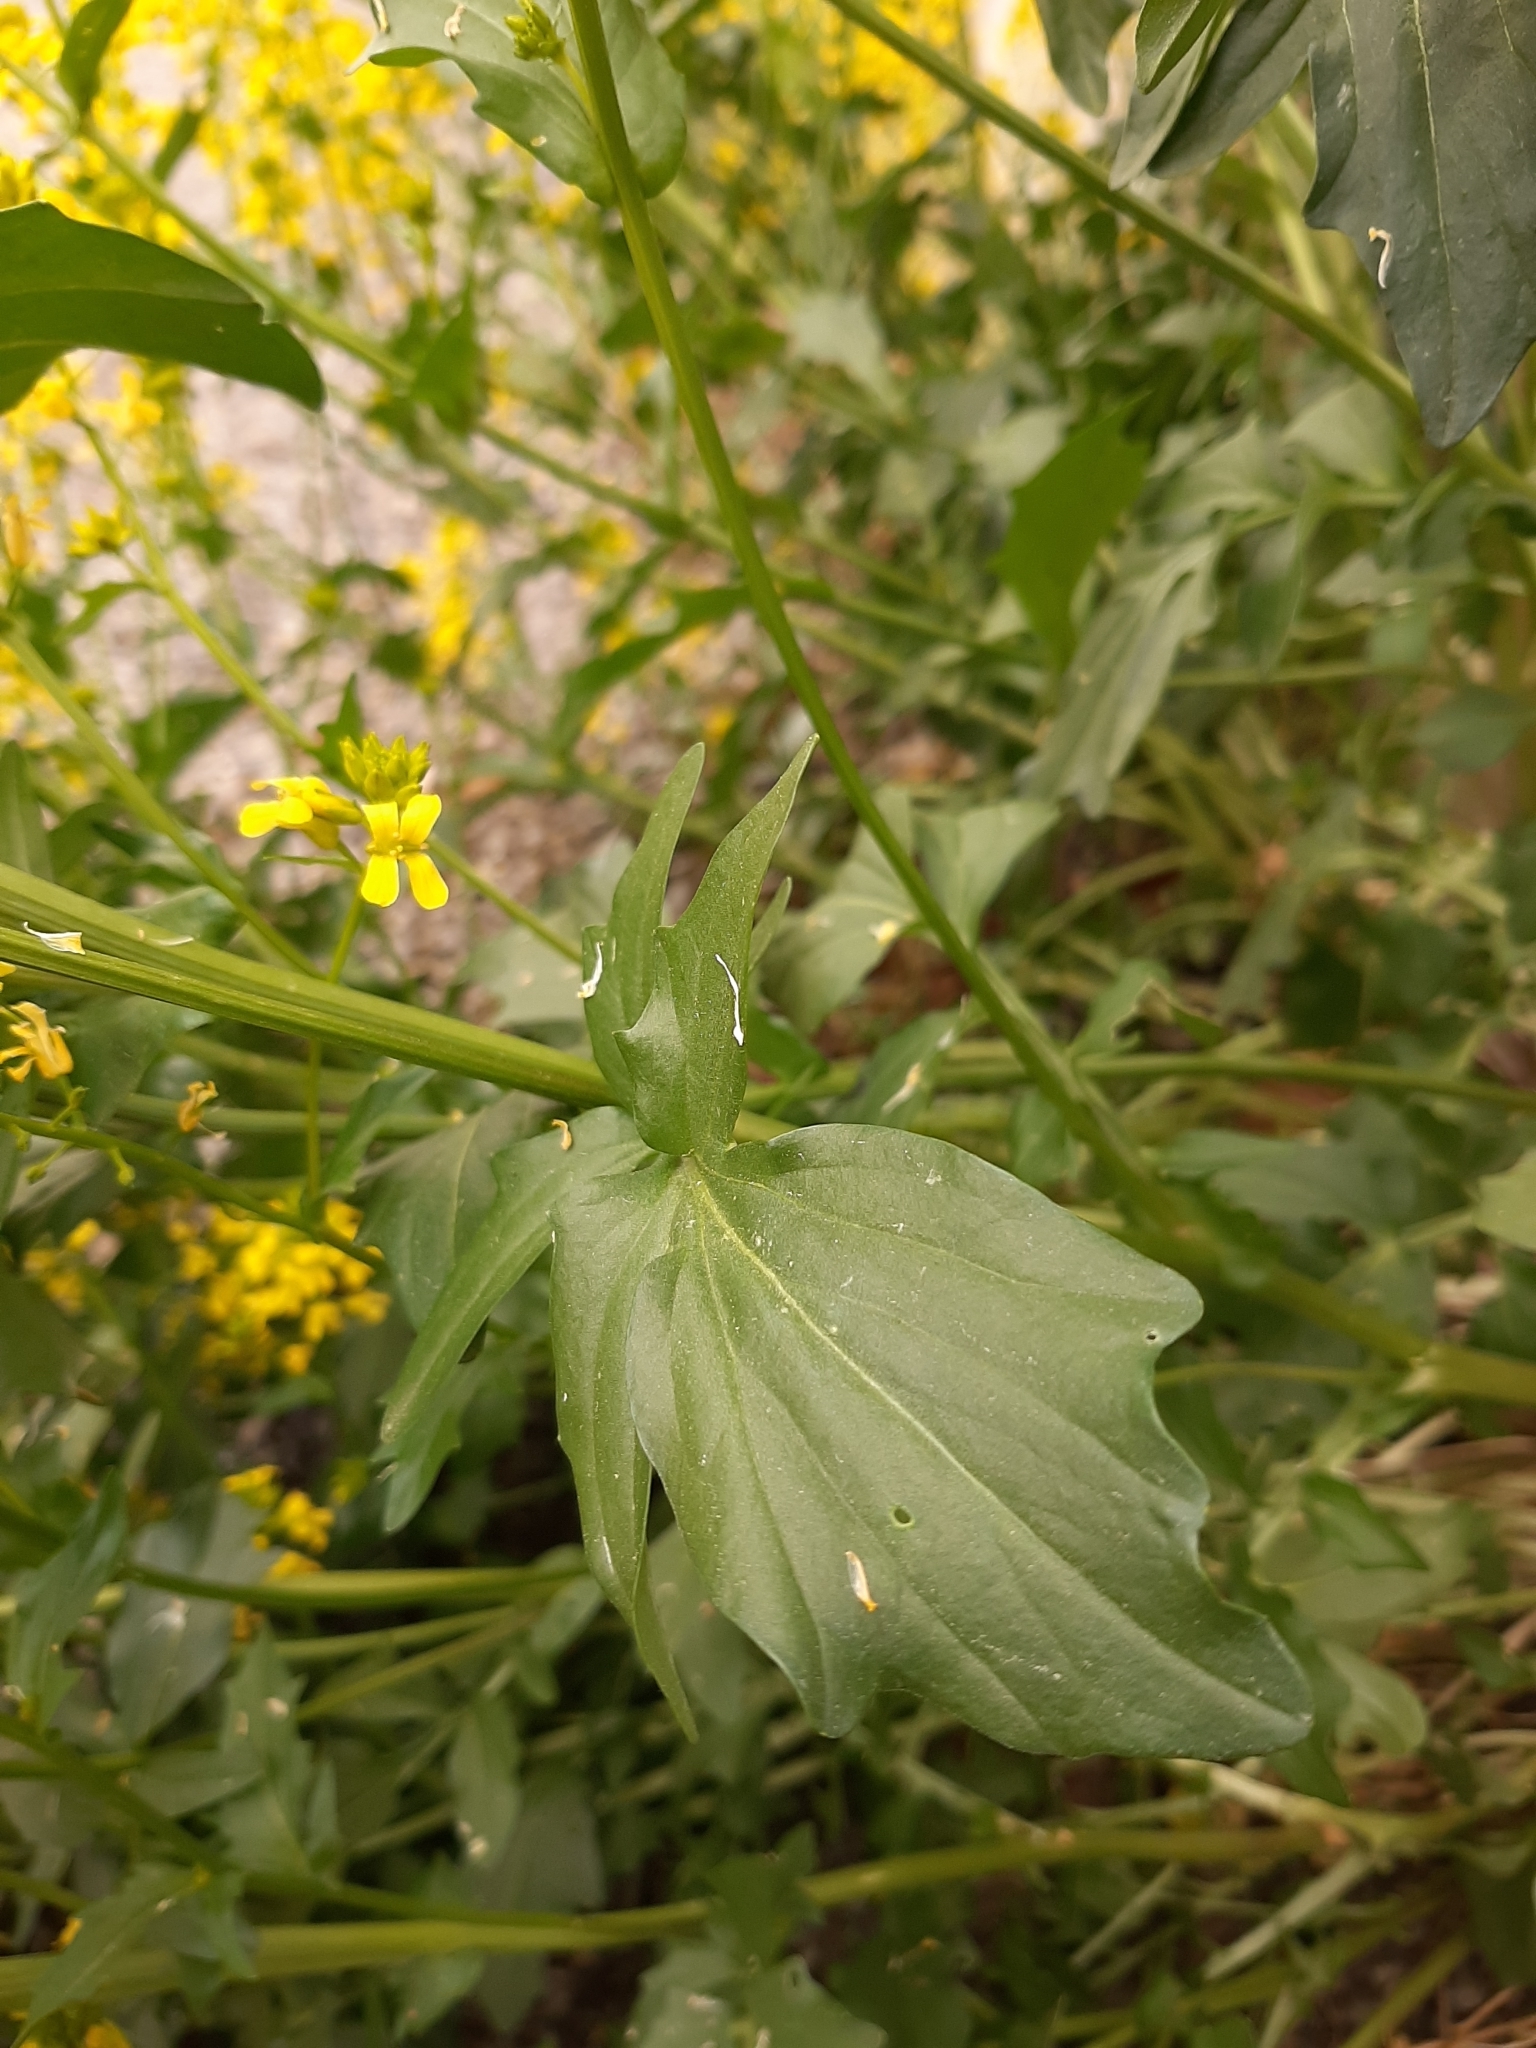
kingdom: Plantae
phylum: Tracheophyta
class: Magnoliopsida
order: Brassicales
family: Brassicaceae
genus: Barbarea
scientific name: Barbarea vulgaris
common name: Cressy-greens
